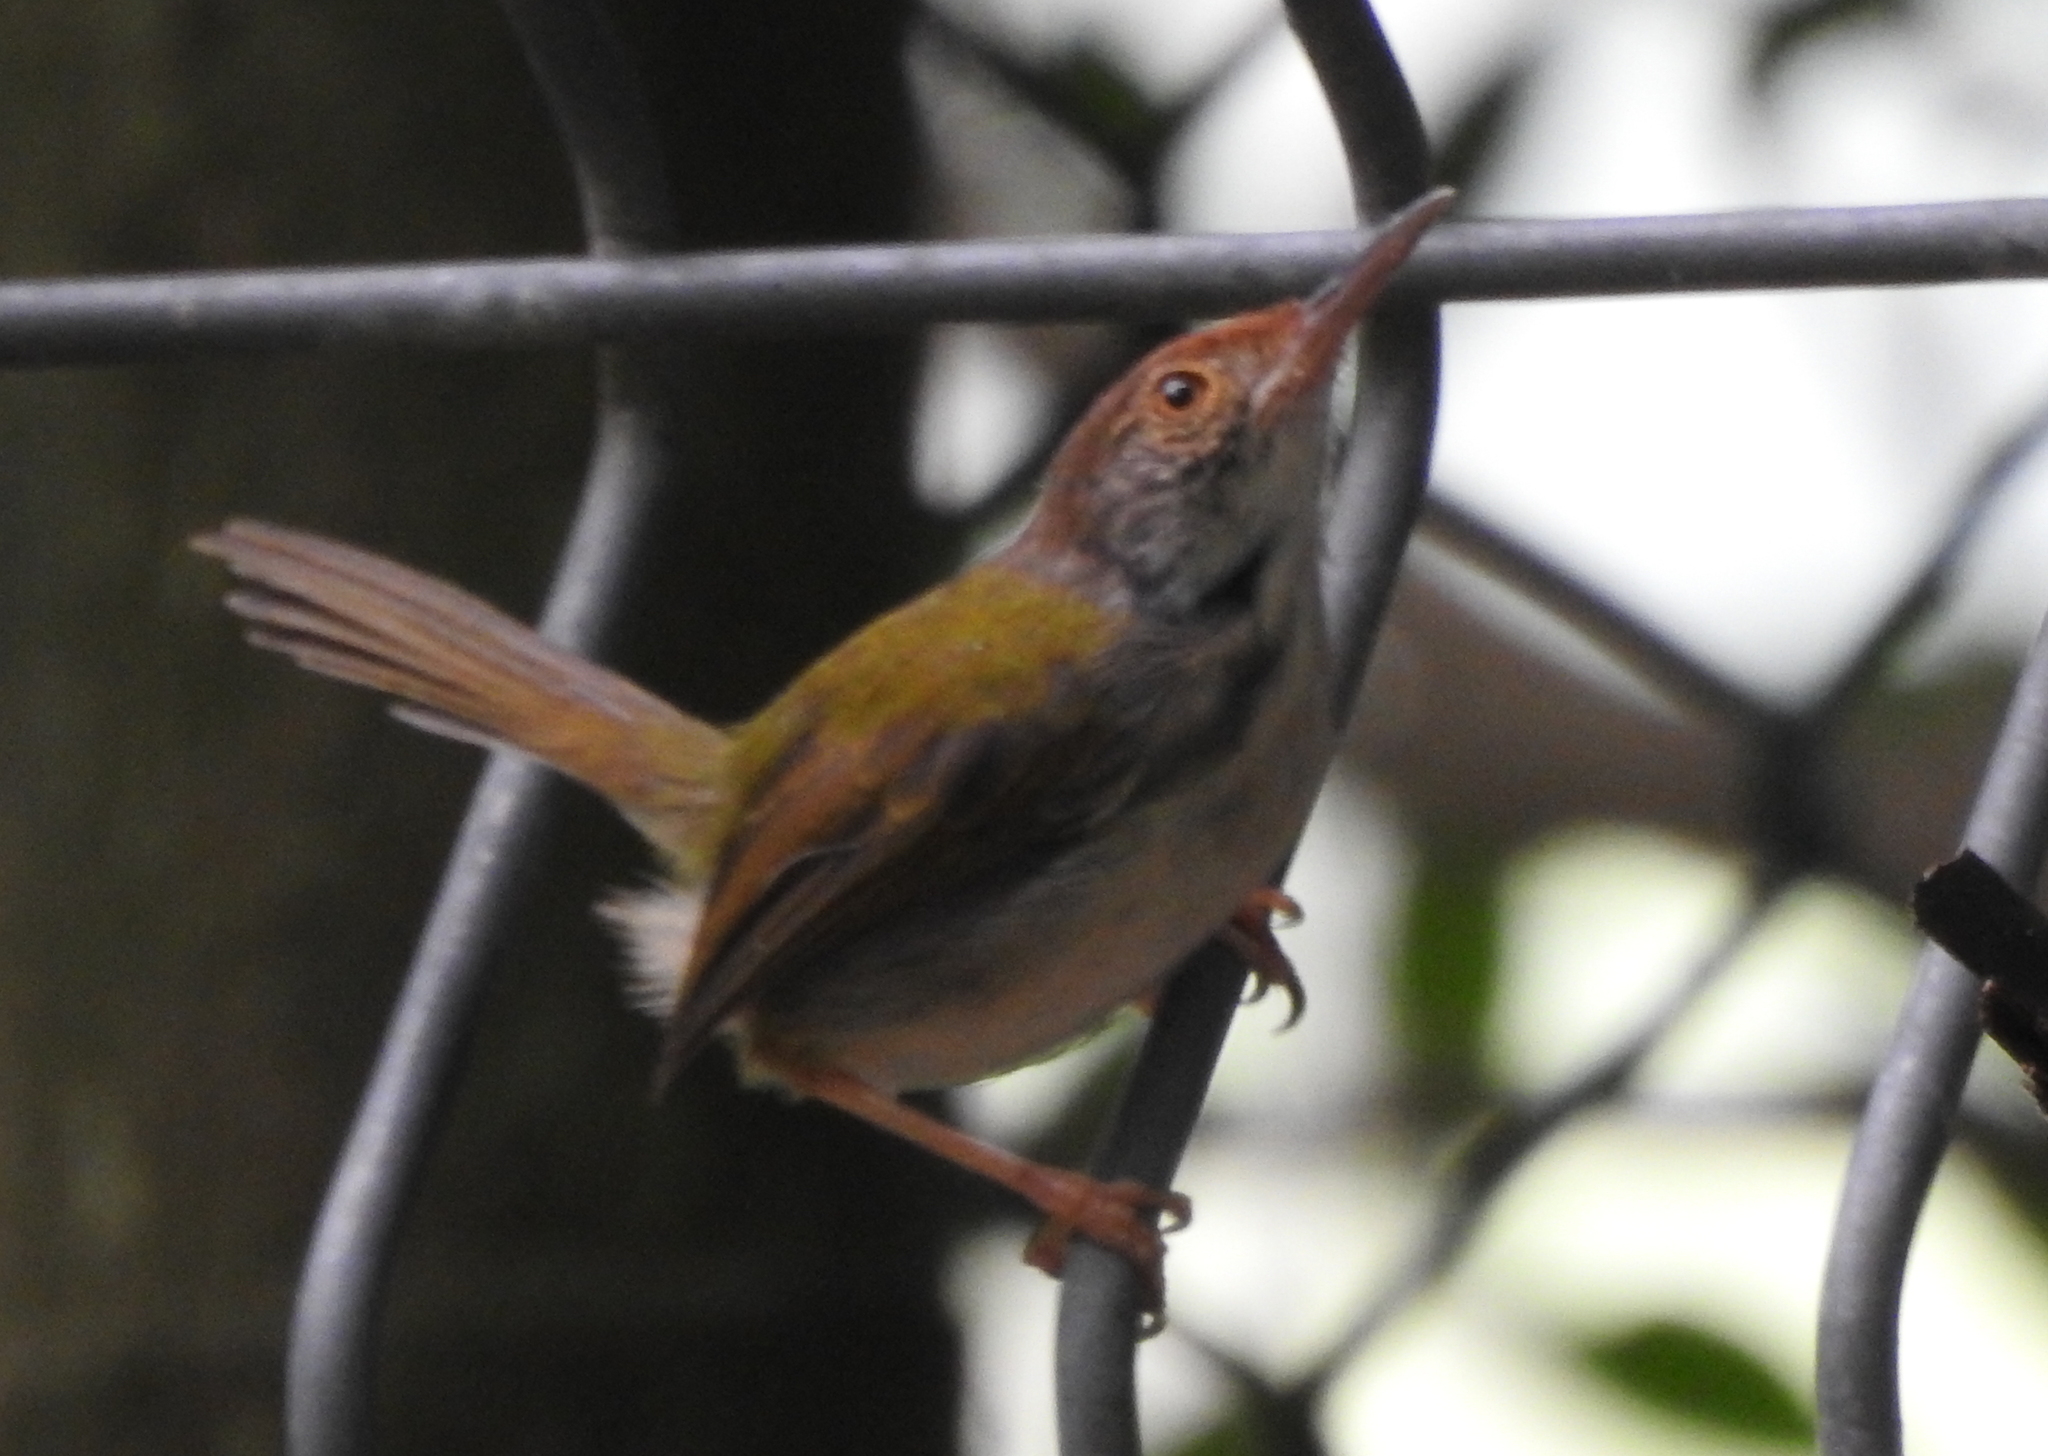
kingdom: Animalia
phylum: Chordata
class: Aves
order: Passeriformes
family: Cisticolidae
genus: Orthotomus
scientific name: Orthotomus sutorius
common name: Common tailorbird
